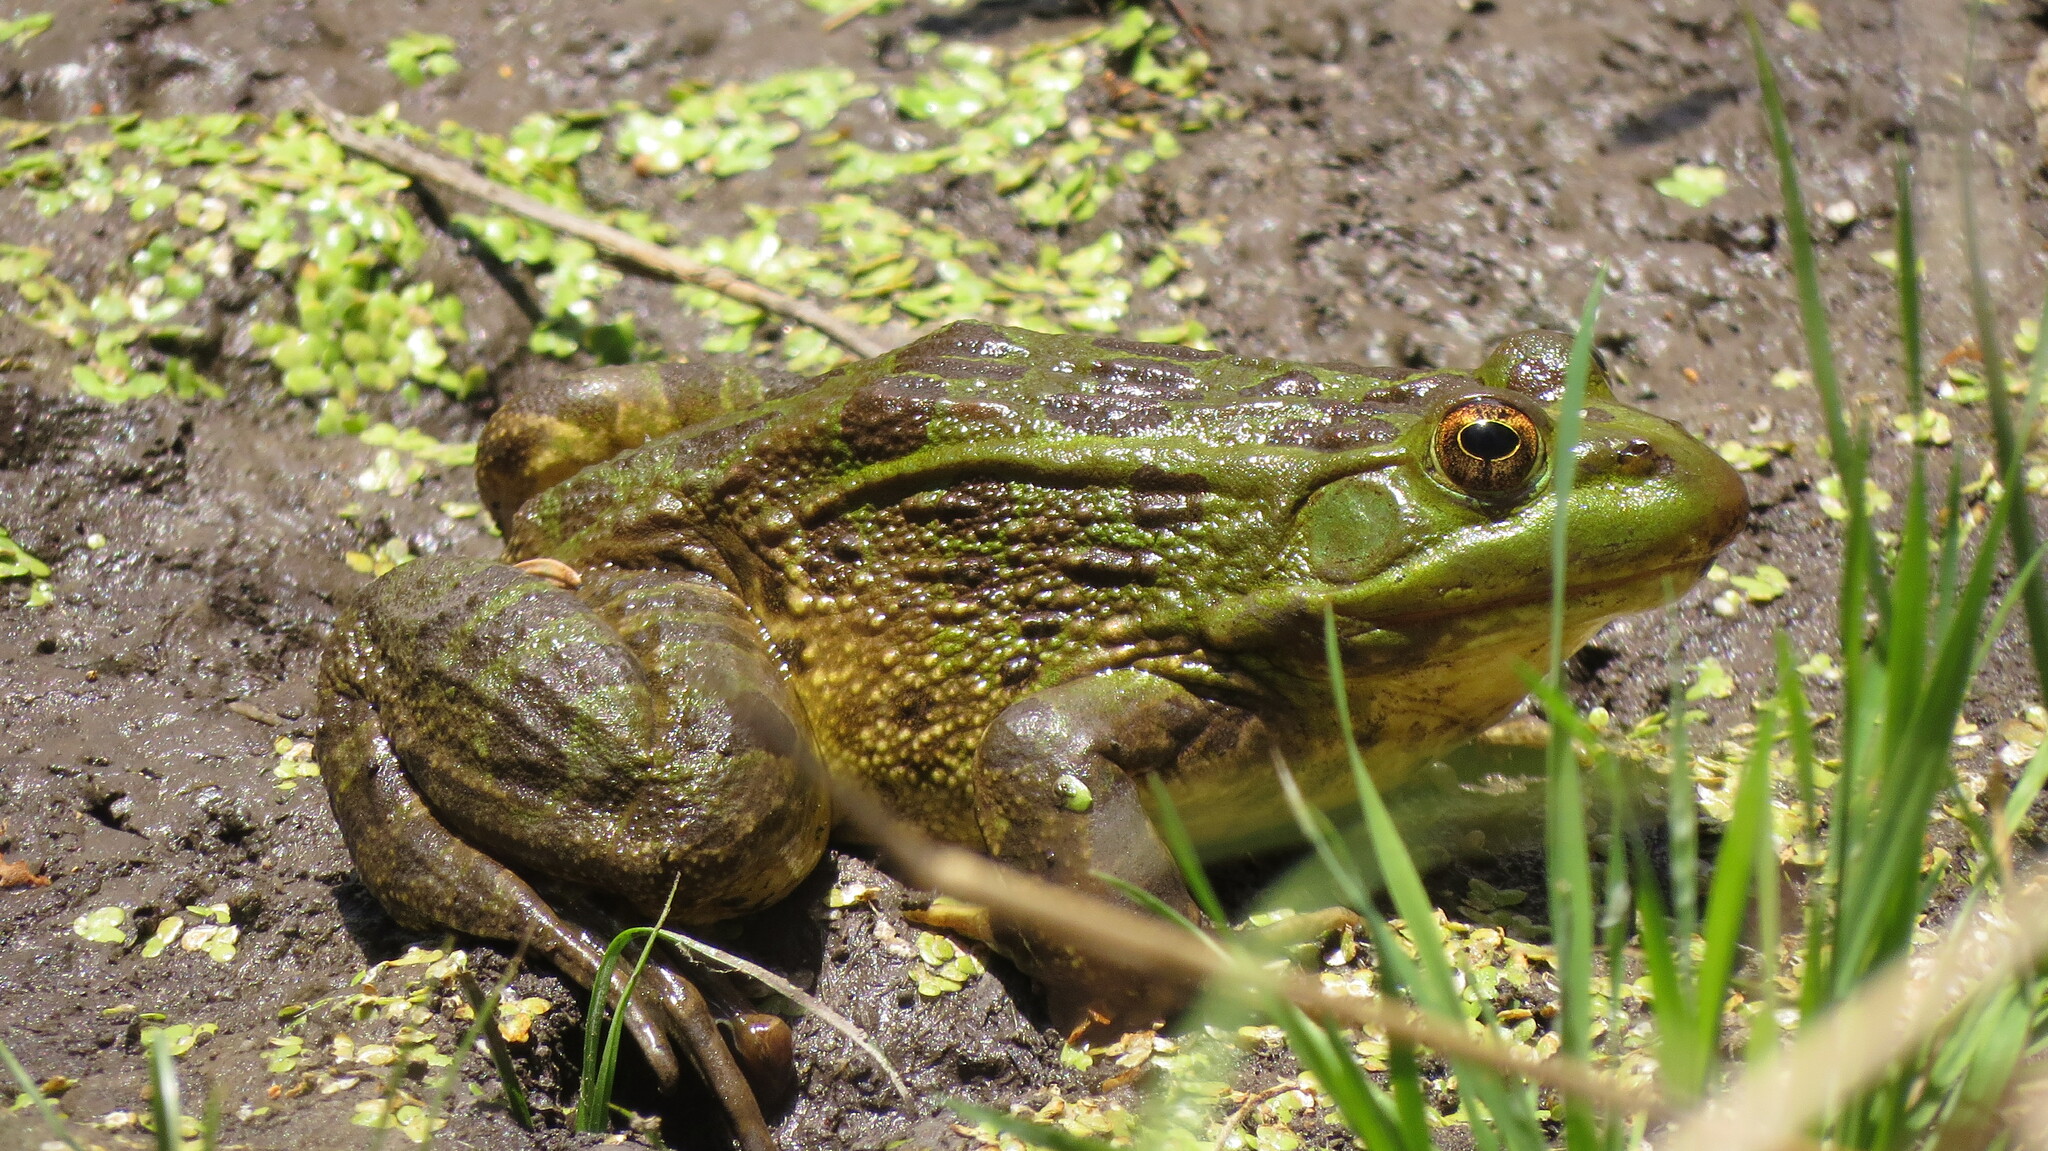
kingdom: Animalia
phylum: Chordata
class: Amphibia
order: Anura
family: Ranidae
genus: Lithobates
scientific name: Lithobates chiricahuensis
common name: Chiricahua leopard frog
